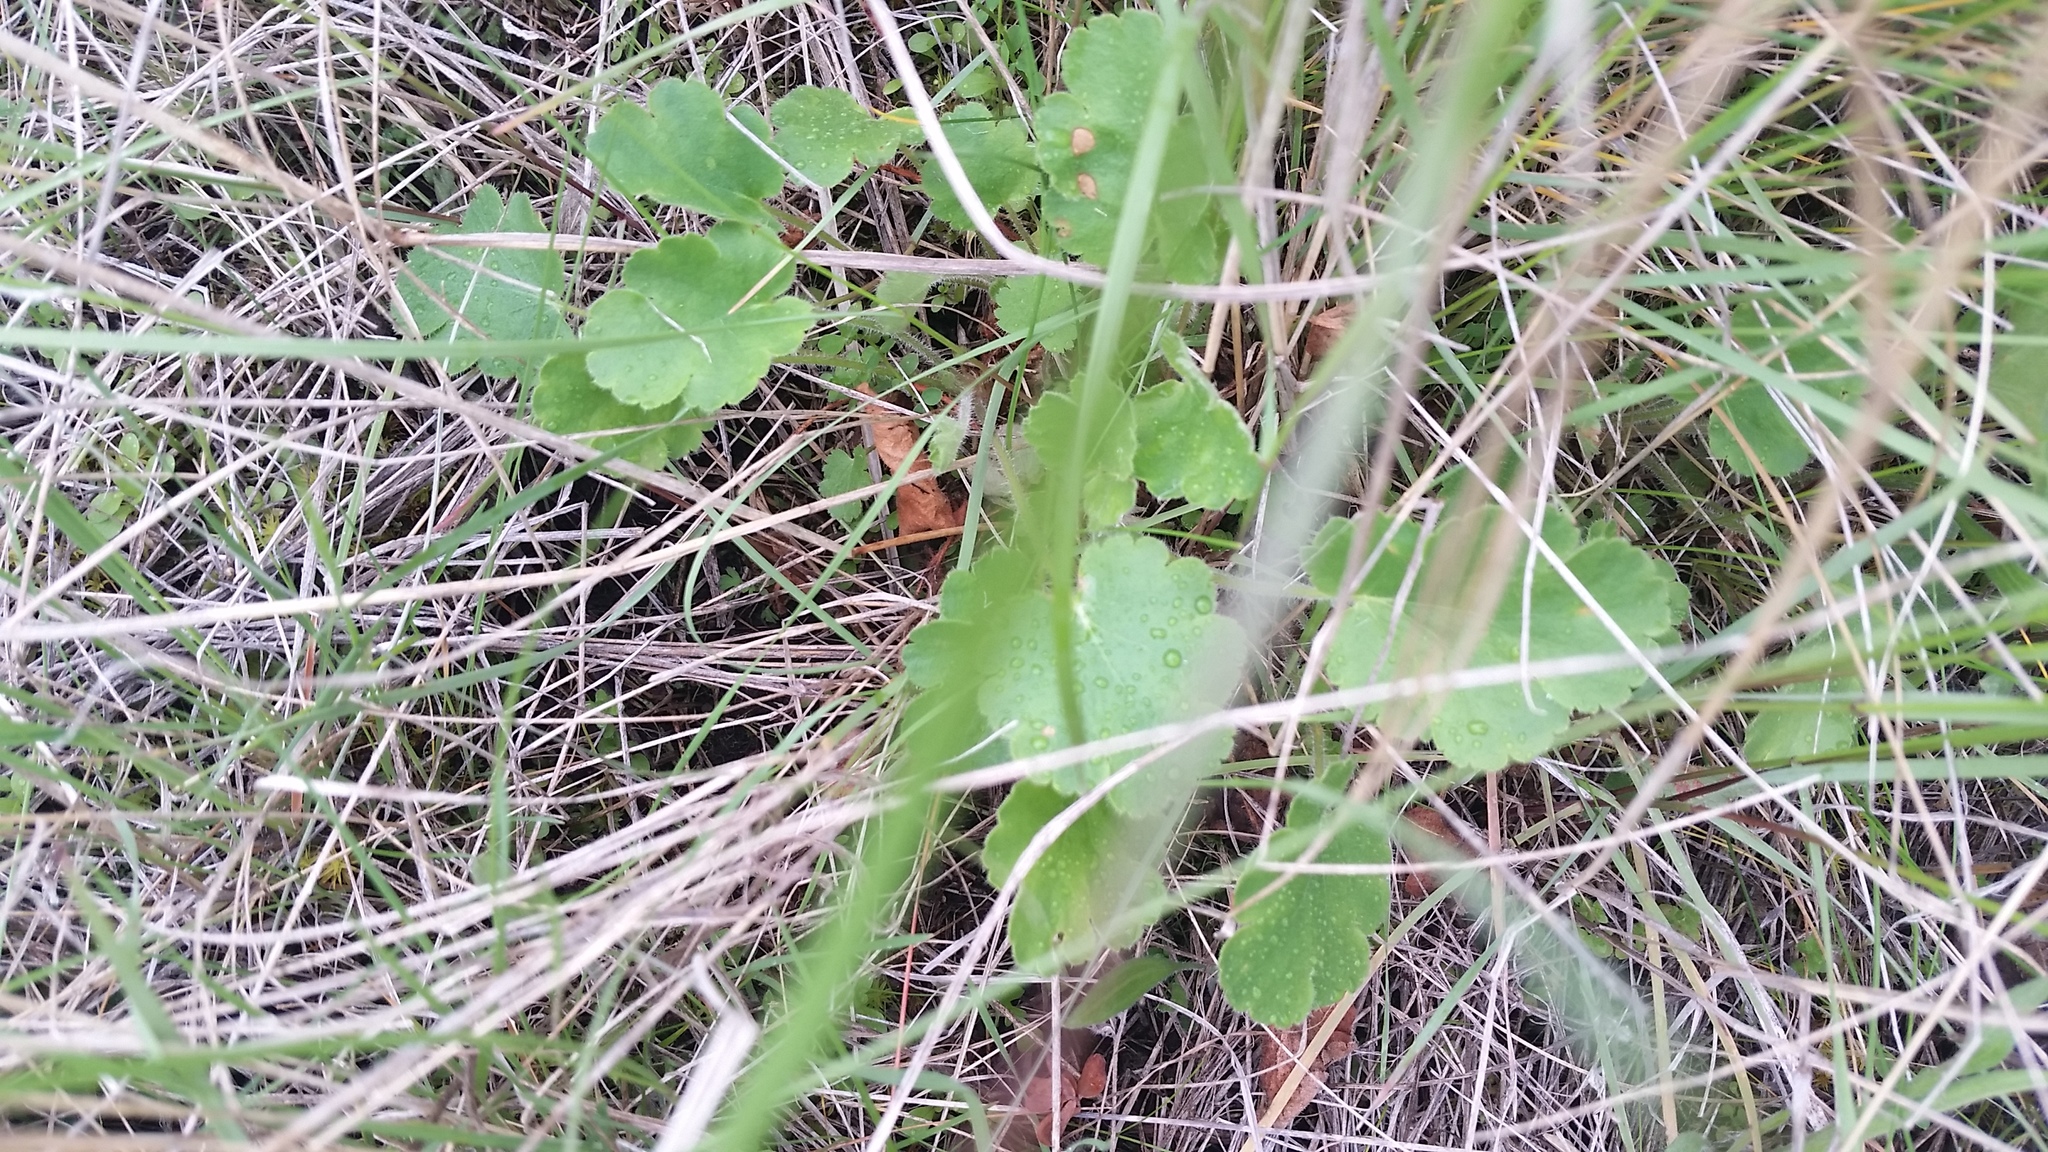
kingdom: Plantae
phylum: Tracheophyta
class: Magnoliopsida
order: Saxifragales
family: Saxifragaceae
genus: Heuchera
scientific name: Heuchera cylindrica
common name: Mat alumroot
